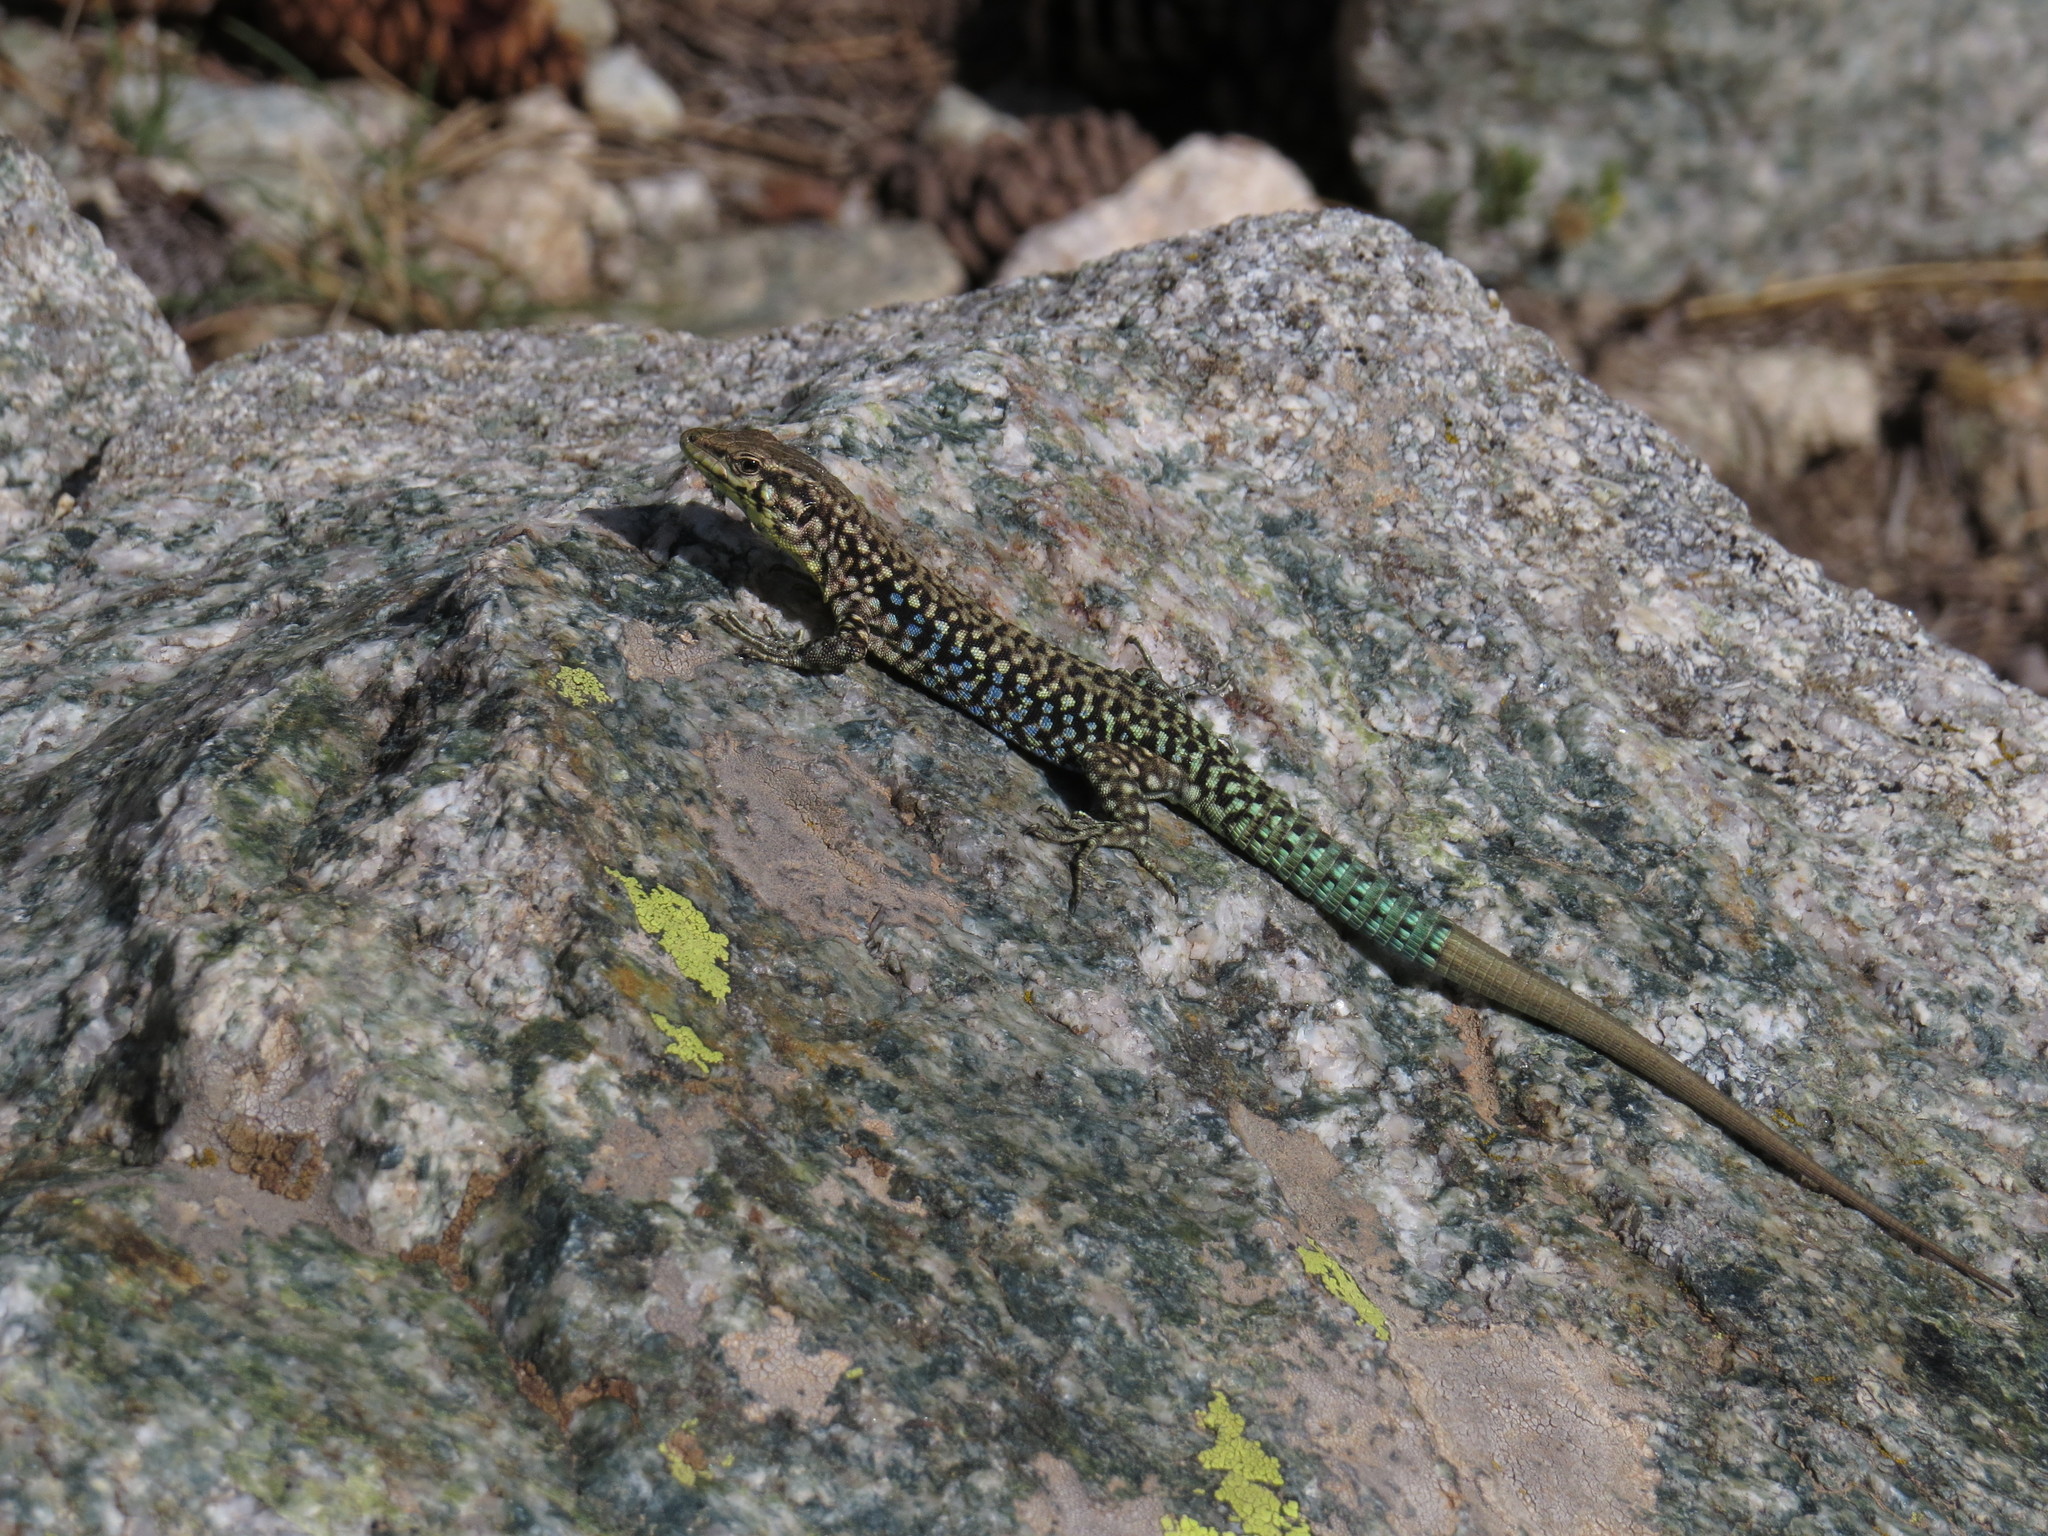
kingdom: Animalia
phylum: Chordata
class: Squamata
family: Lacertidae
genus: Podarcis
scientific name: Podarcis tiliguerta
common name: Tyrrhenian wall lizard
